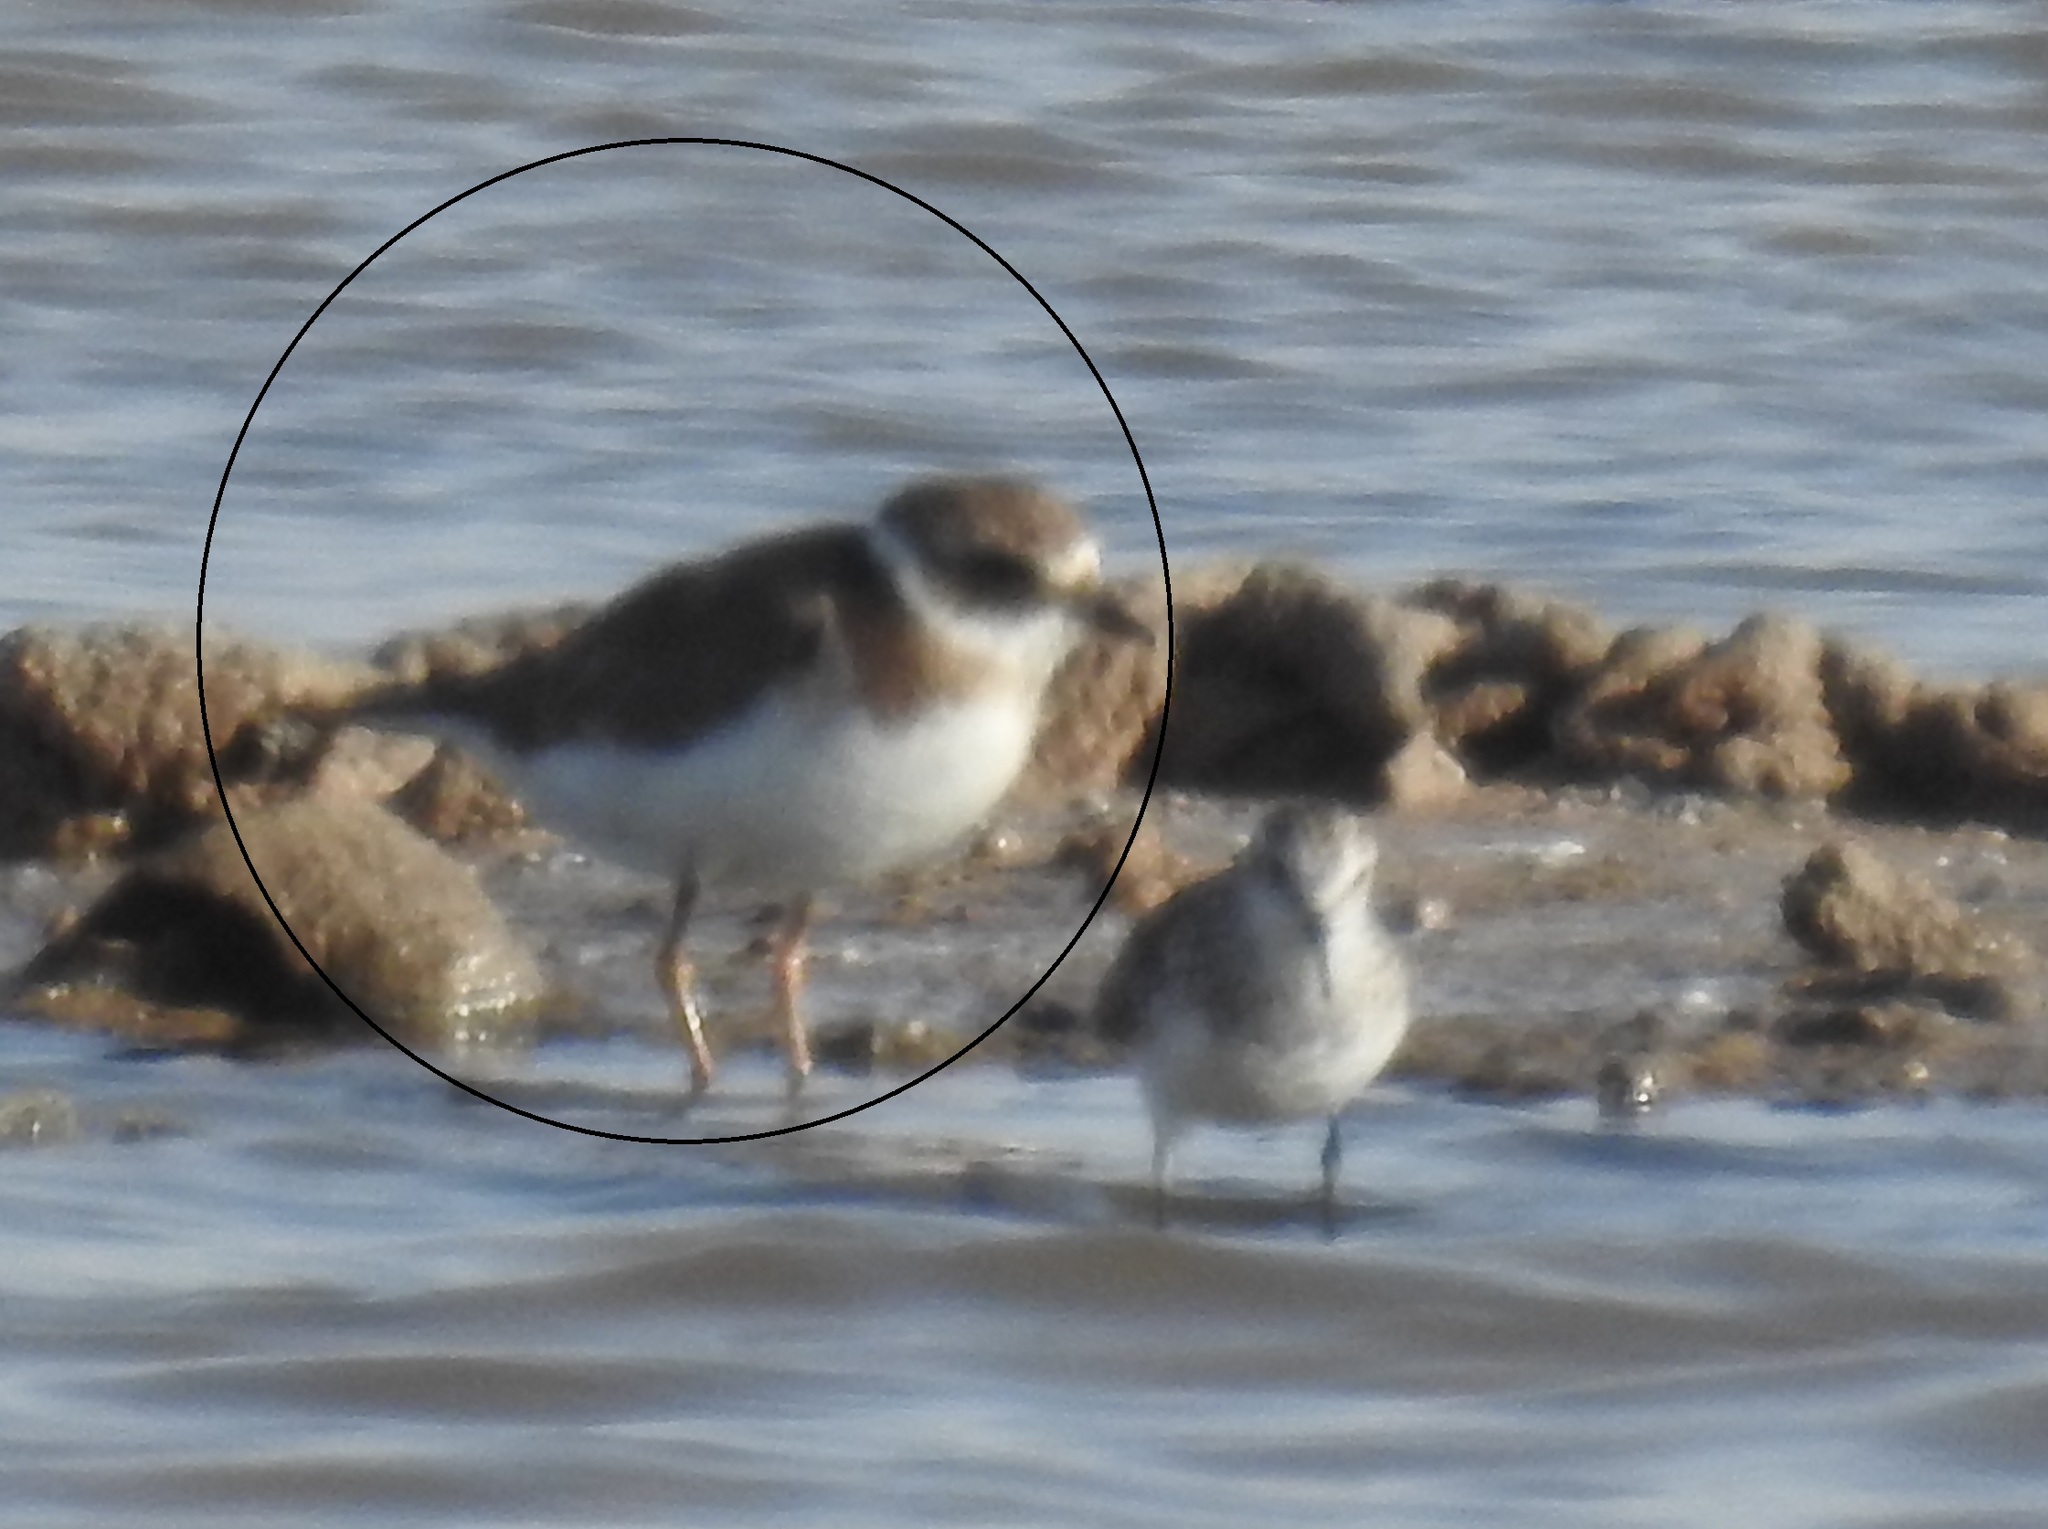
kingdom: Animalia
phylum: Chordata
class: Aves
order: Charadriiformes
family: Charadriidae
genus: Charadrius
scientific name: Charadrius hiaticula
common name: Common ringed plover
